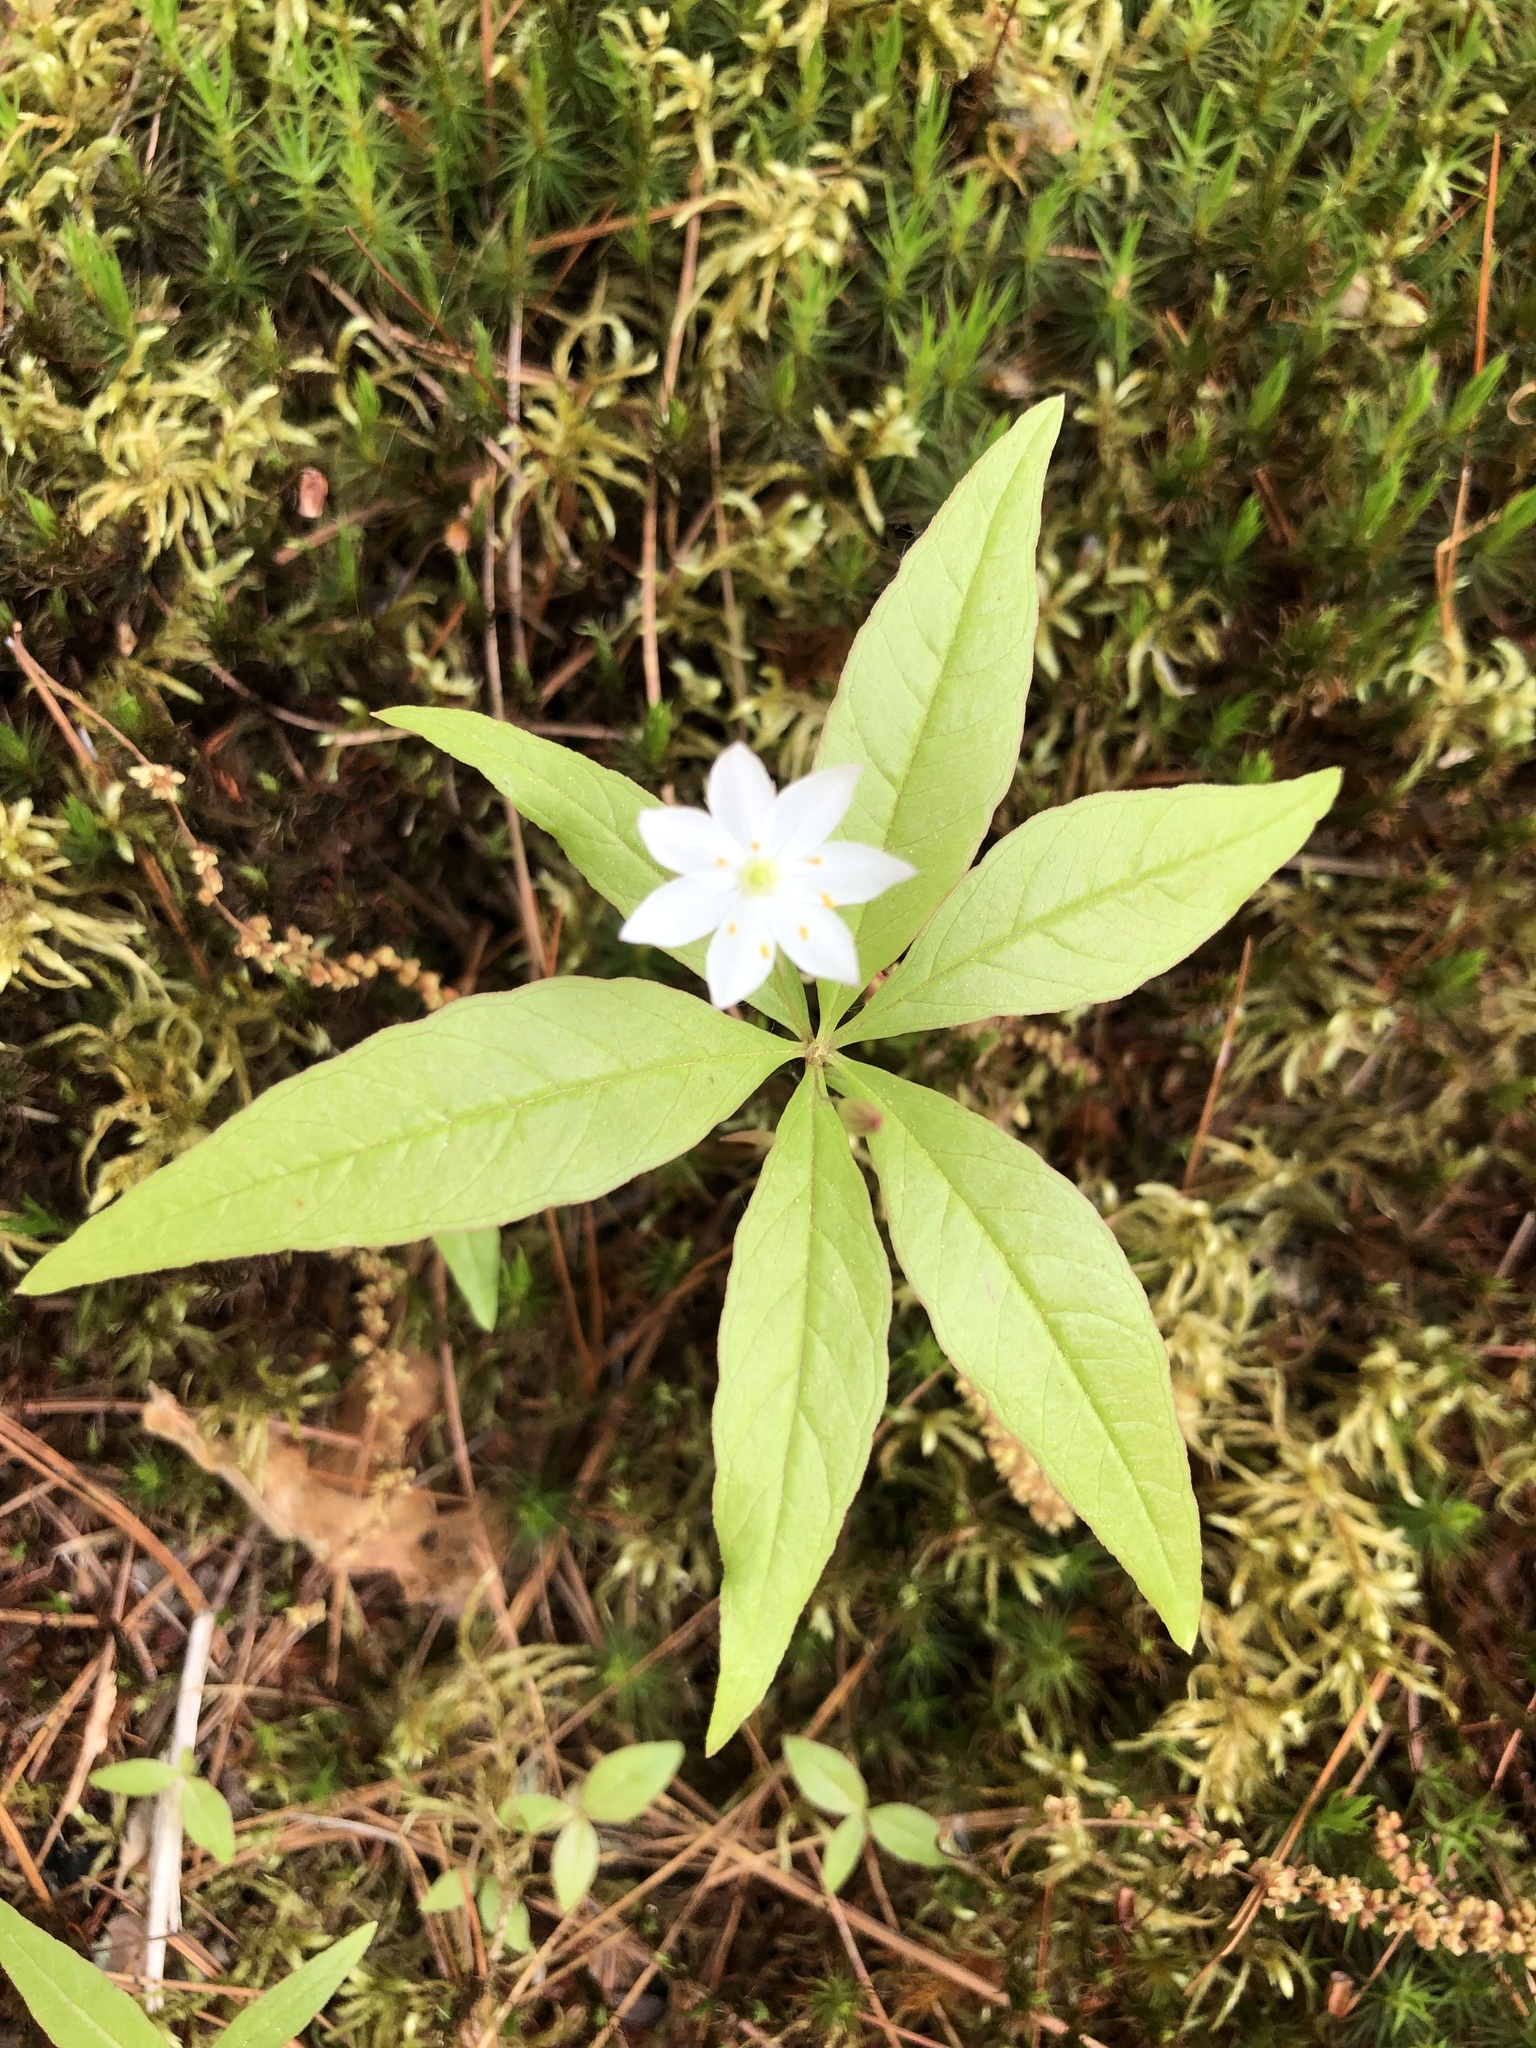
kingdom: Plantae
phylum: Tracheophyta
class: Magnoliopsida
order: Ericales
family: Primulaceae
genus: Lysimachia
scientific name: Lysimachia borealis
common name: American starflower
